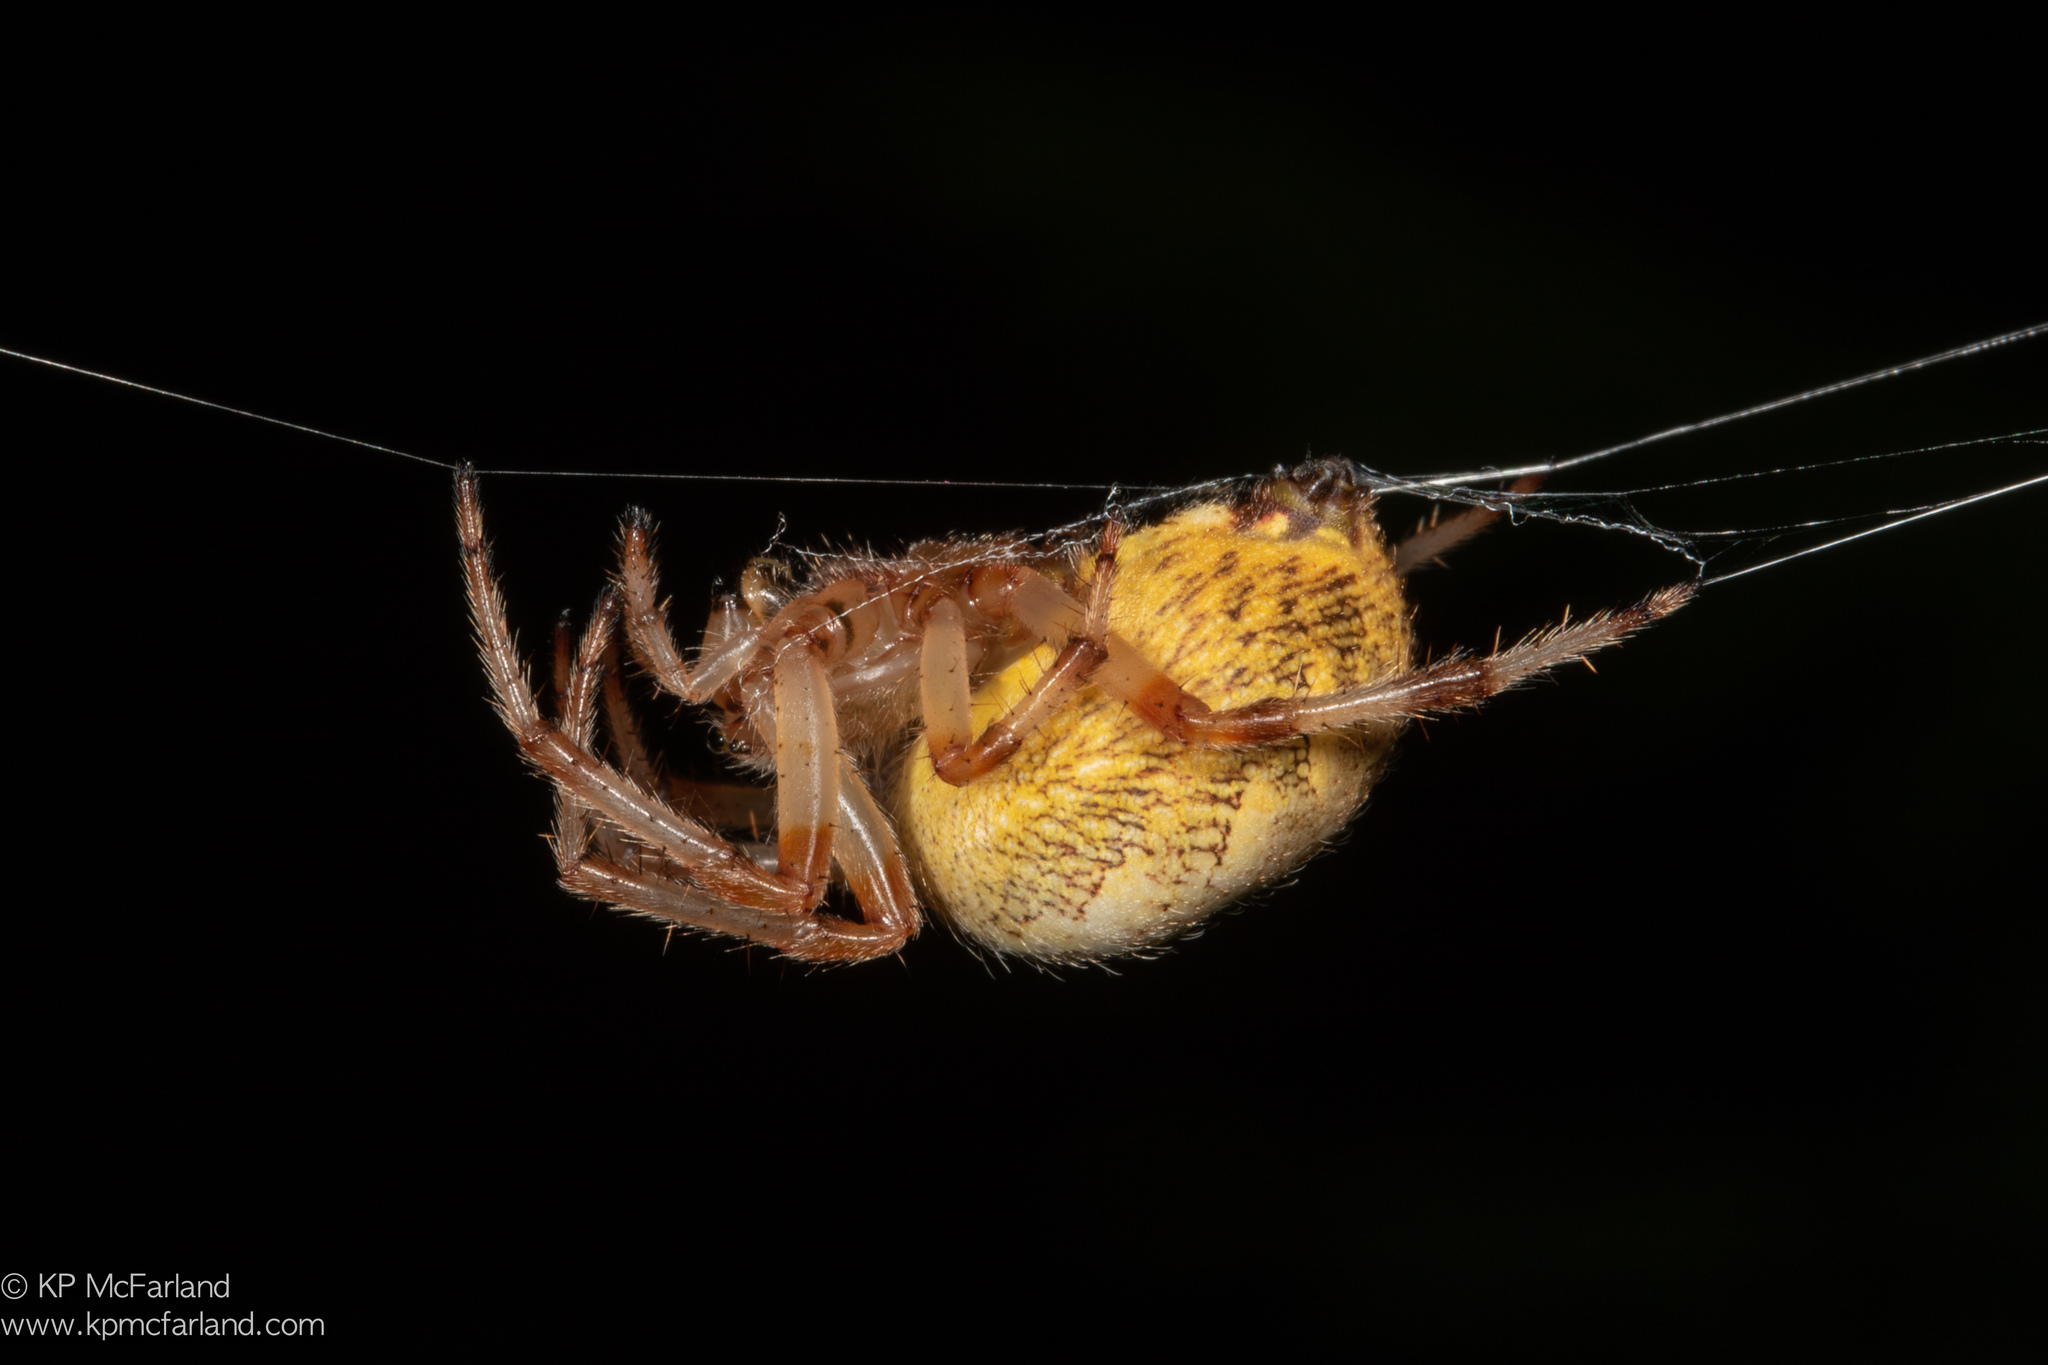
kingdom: Animalia
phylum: Arthropoda
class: Arachnida
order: Araneae
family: Araneidae
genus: Araneus
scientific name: Araneus marmoreus
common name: Marbled orbweaver
